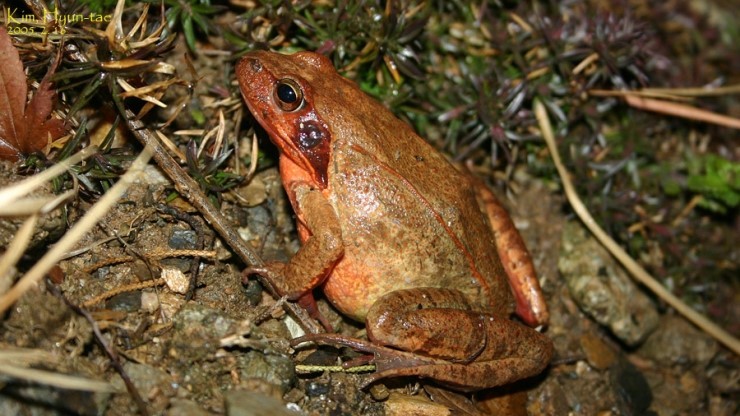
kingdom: Animalia
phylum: Chordata
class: Amphibia
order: Anura
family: Ranidae
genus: Rana
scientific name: Rana uenoi
